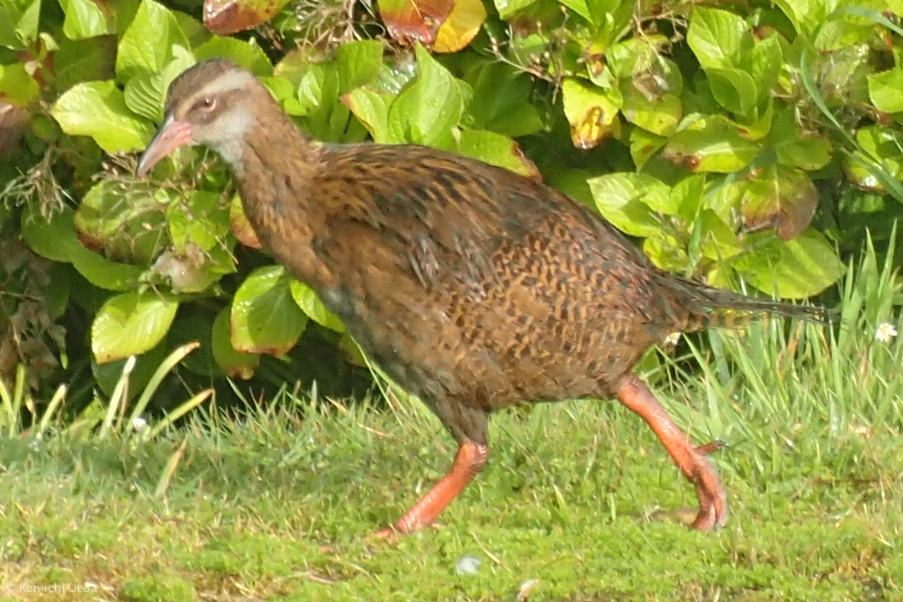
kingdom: Animalia
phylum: Chordata
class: Aves
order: Gruiformes
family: Rallidae
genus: Gallirallus
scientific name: Gallirallus australis
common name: Weka
